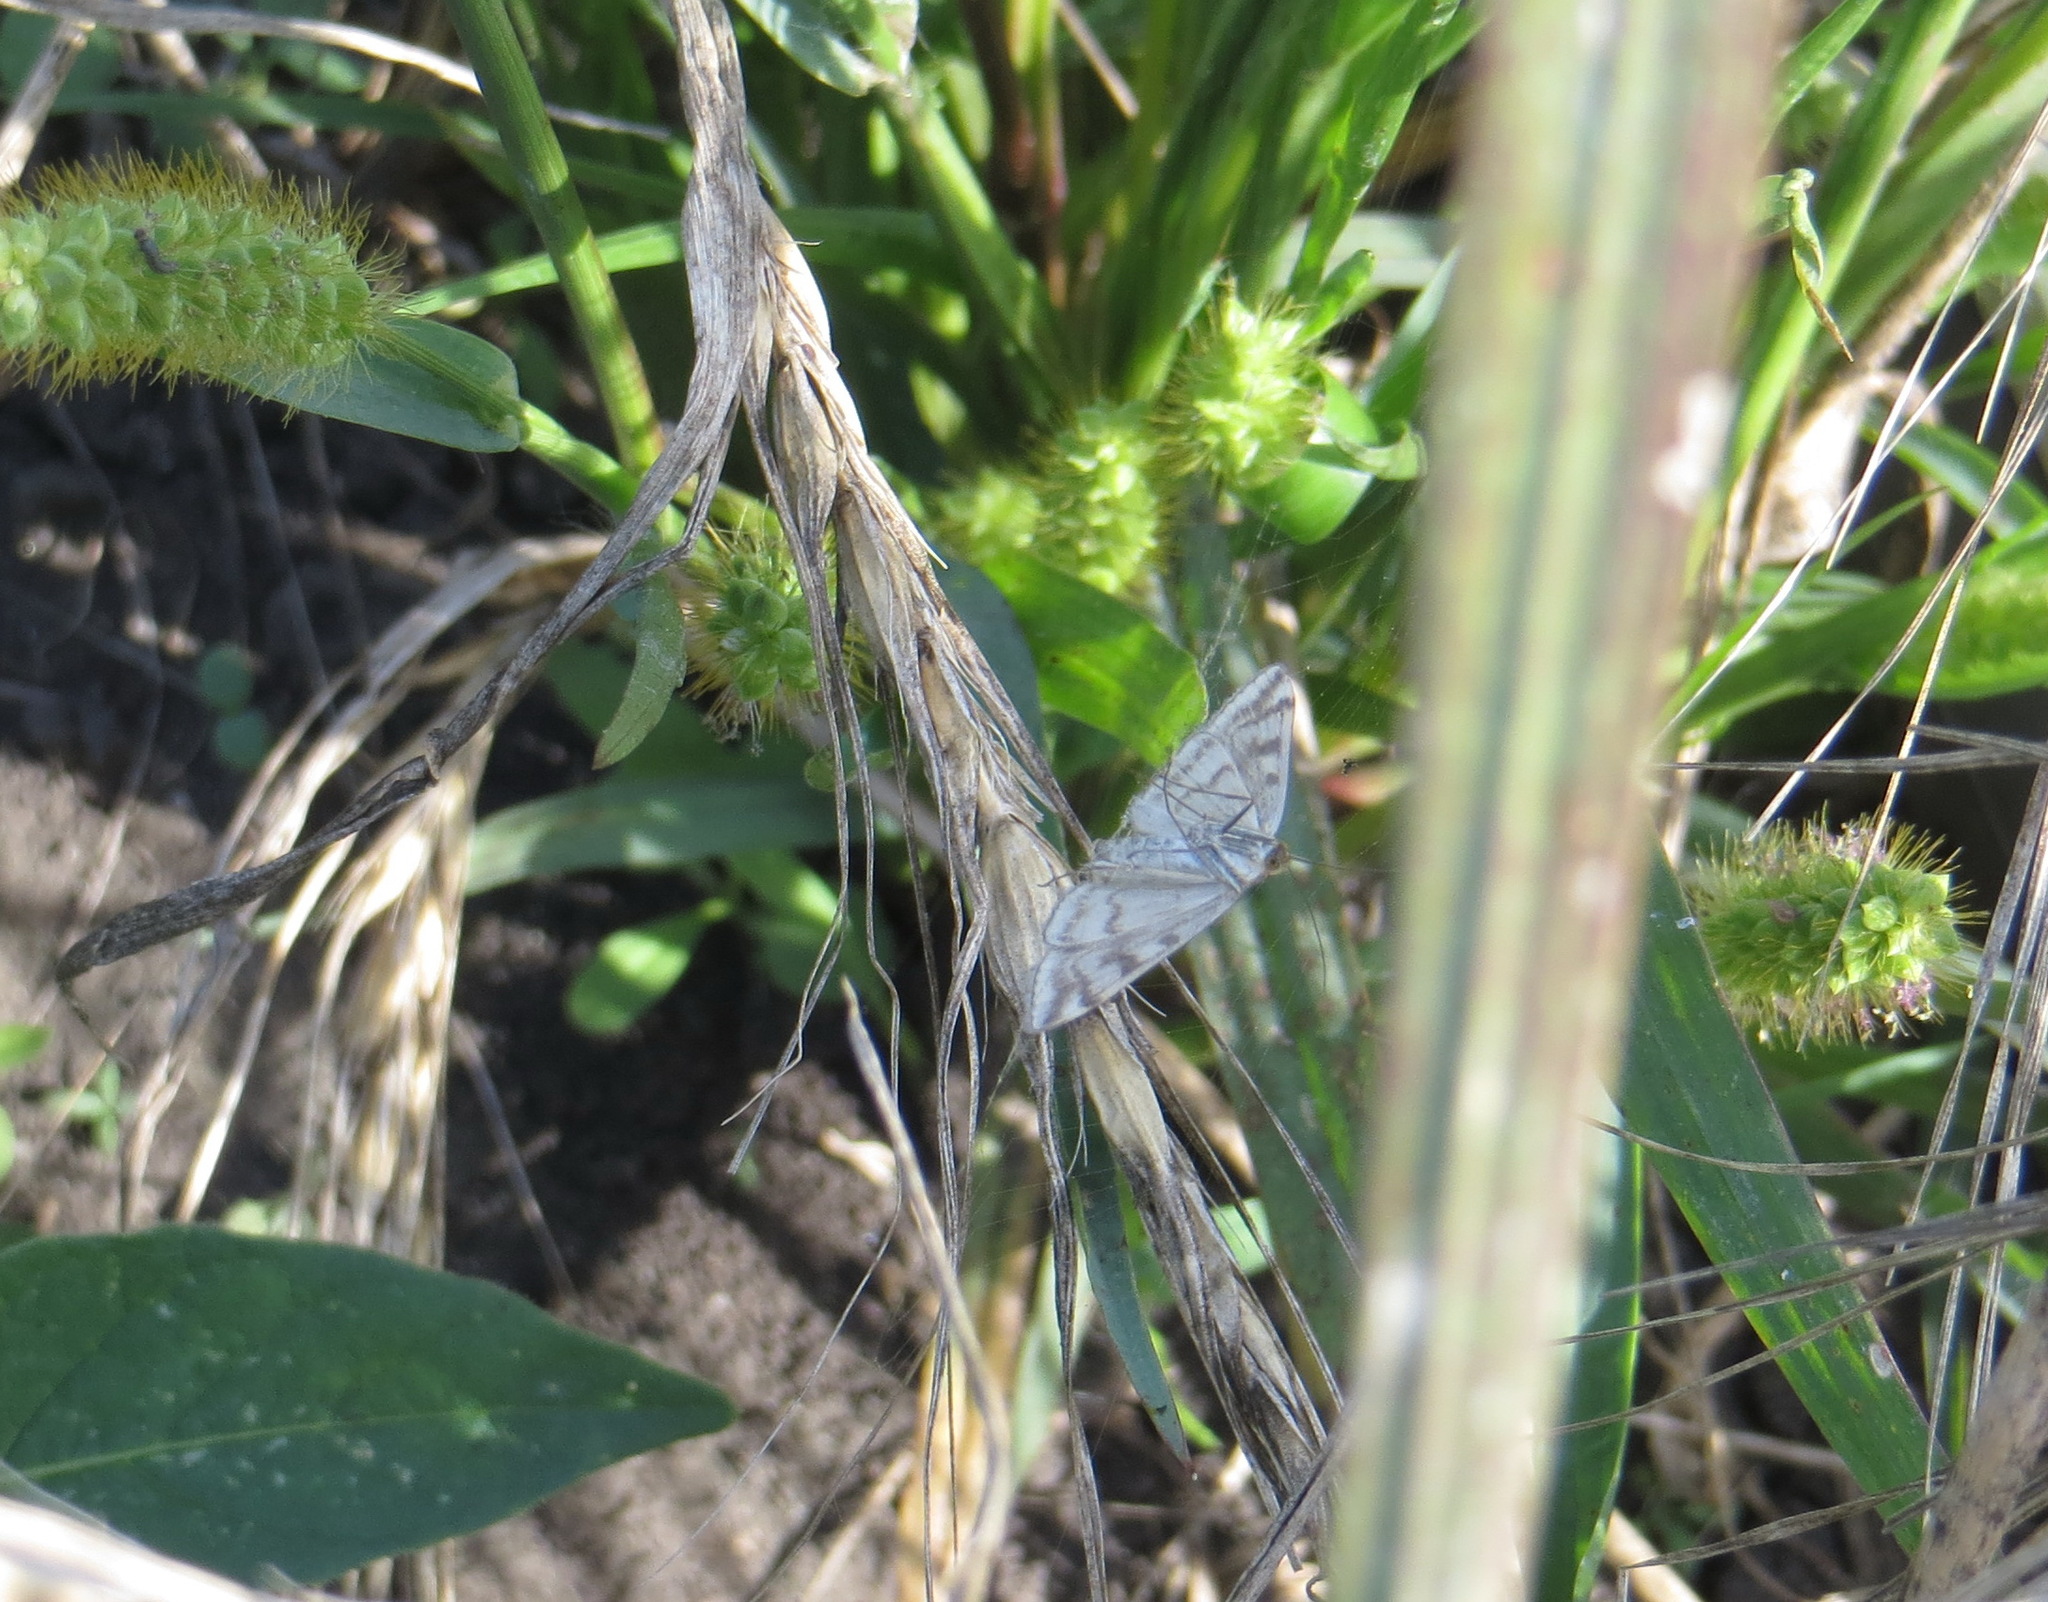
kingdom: Animalia
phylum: Arthropoda
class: Insecta
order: Lepidoptera
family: Crambidae
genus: Loxostege
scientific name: Loxostege sticticalis
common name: Crambid moth
